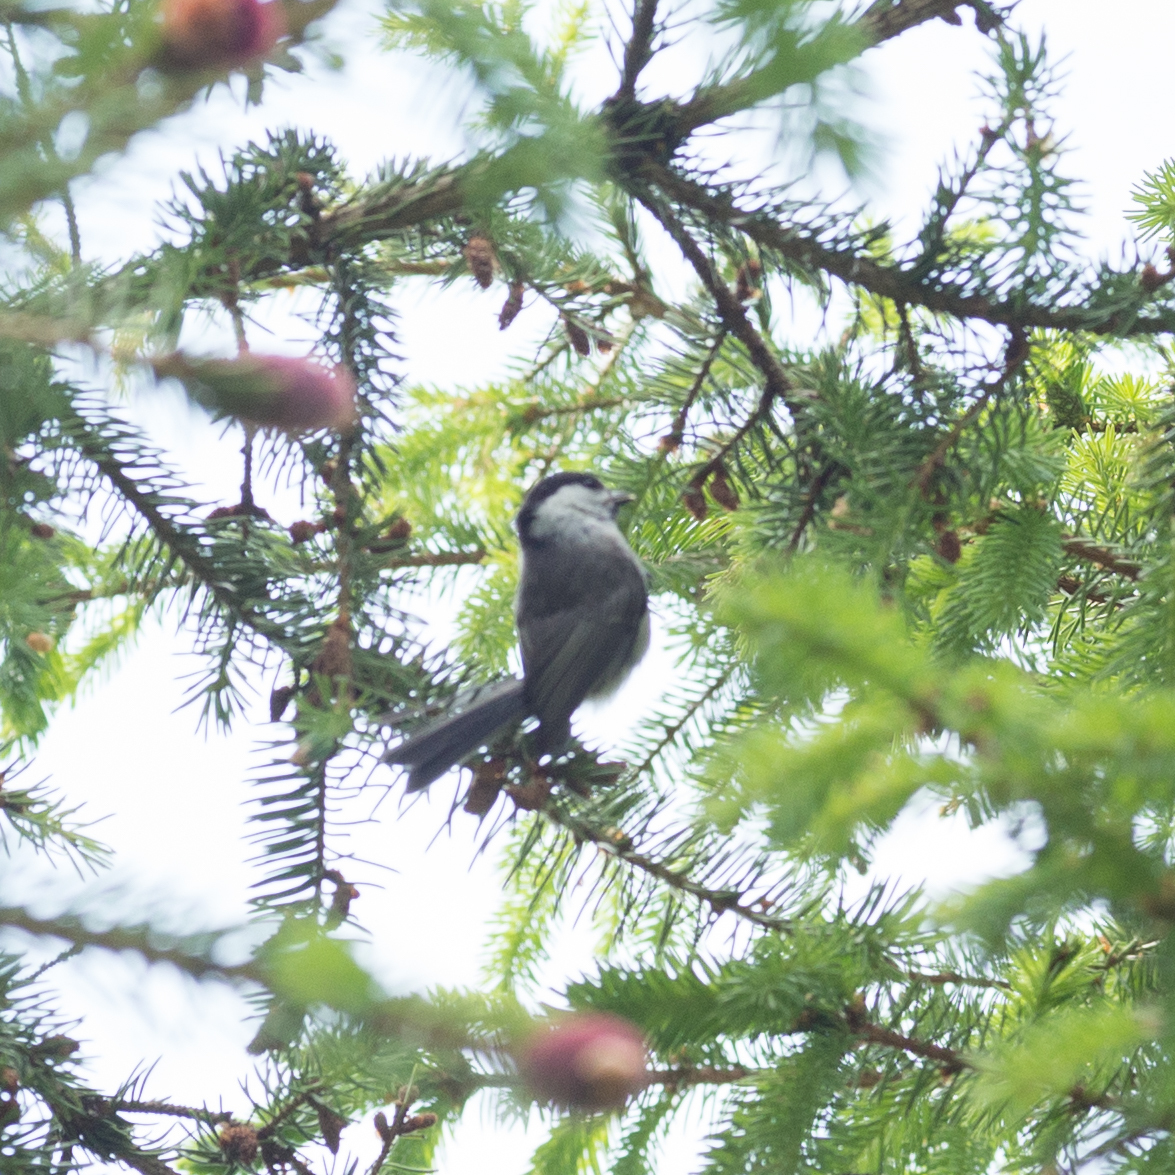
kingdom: Animalia
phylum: Chordata
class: Aves
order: Passeriformes
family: Paridae
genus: Poecile
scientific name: Poecile palustris
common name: Marsh tit
